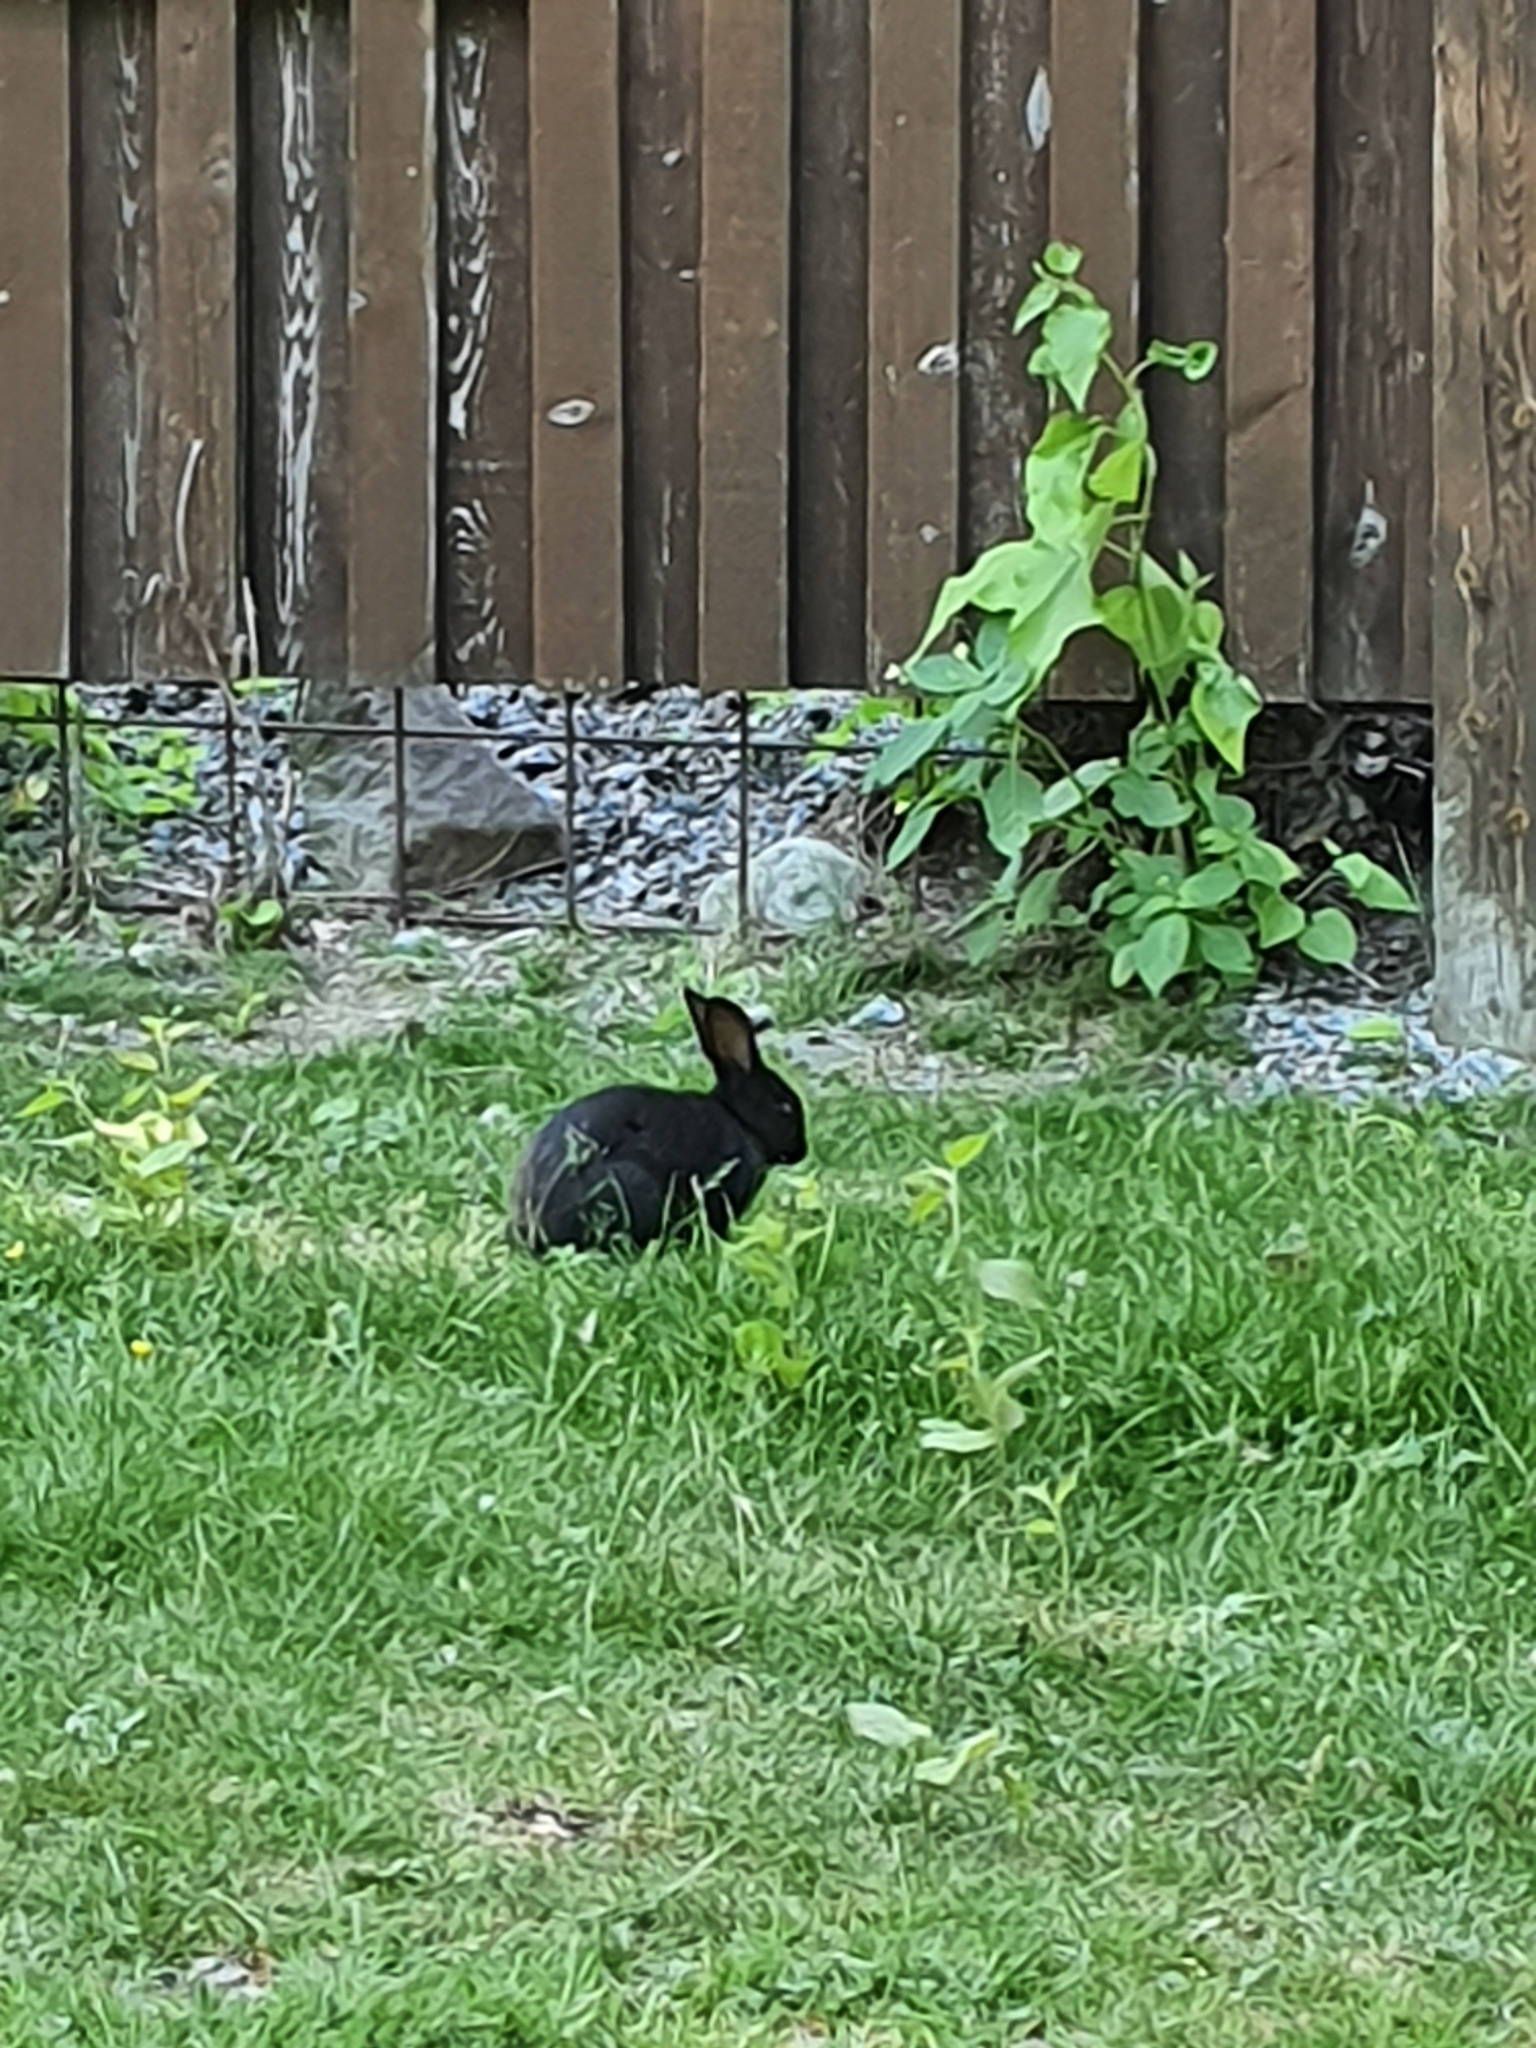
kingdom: Animalia
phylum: Chordata
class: Mammalia
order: Lagomorpha
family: Leporidae
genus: Oryctolagus
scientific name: Oryctolagus cuniculus
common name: European rabbit
